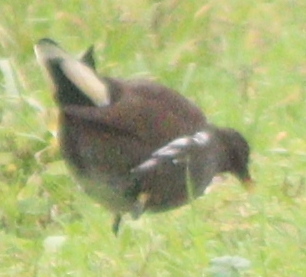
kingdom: Animalia
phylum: Chordata
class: Aves
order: Gruiformes
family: Rallidae
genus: Gallinula
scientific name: Gallinula chloropus
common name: Common moorhen
